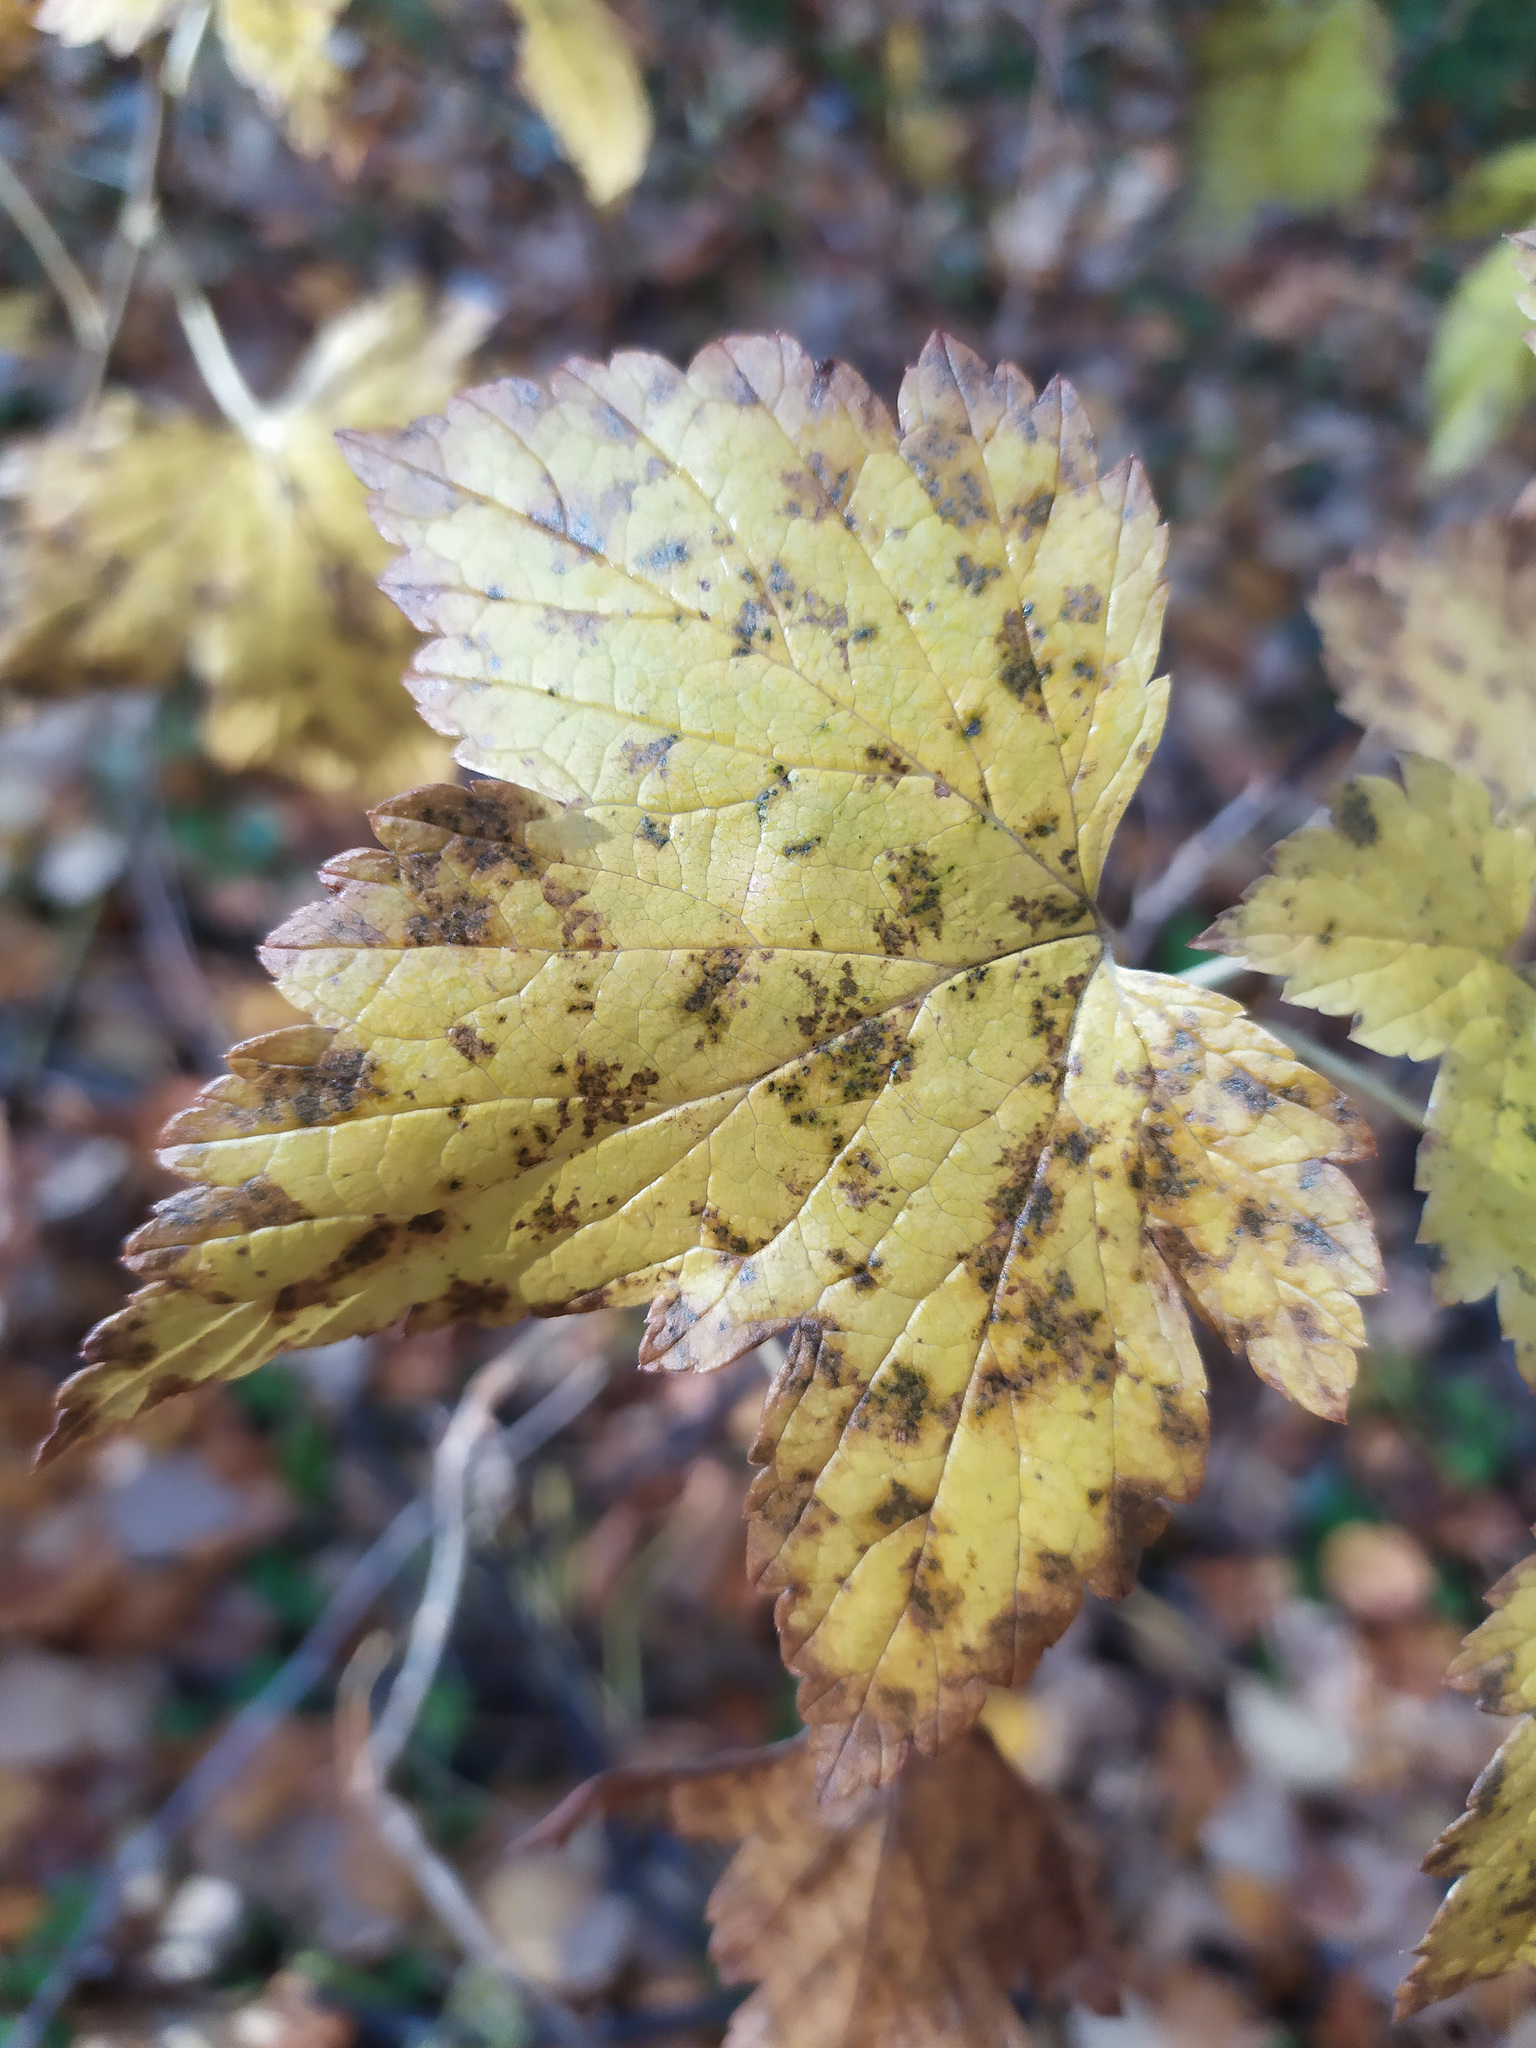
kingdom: Plantae
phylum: Tracheophyta
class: Magnoliopsida
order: Saxifragales
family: Grossulariaceae
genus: Ribes
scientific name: Ribes nigrum
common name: Black currant
